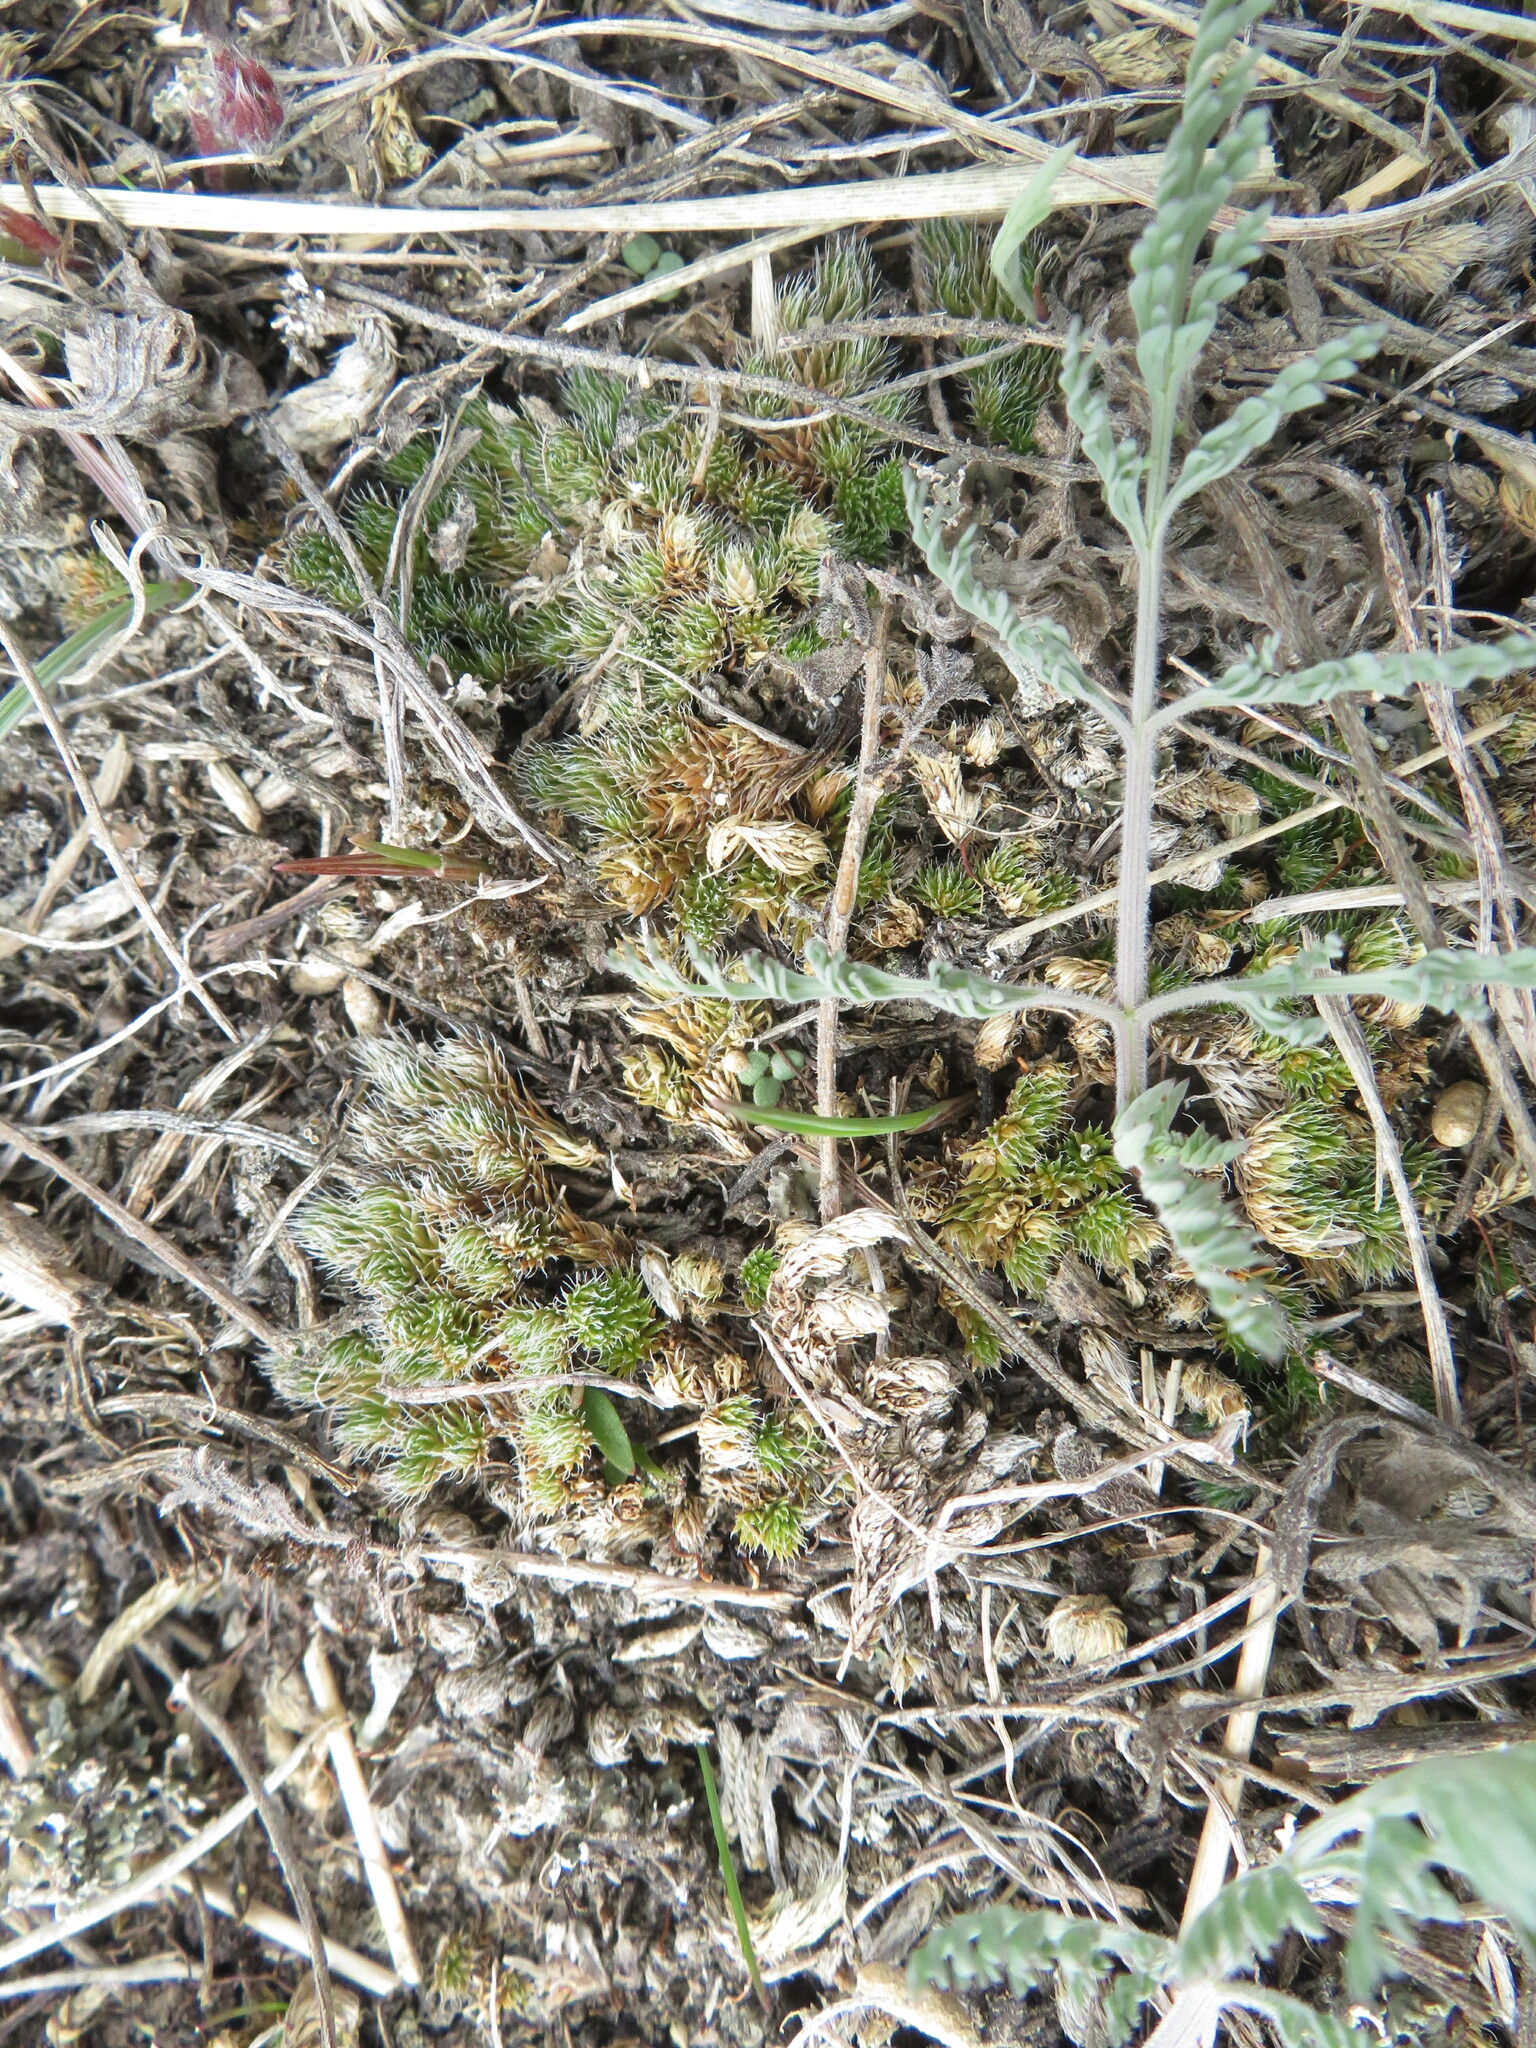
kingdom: Plantae
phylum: Tracheophyta
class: Lycopodiopsida
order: Selaginellales
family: Selaginellaceae
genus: Selaginella
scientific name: Selaginella densa
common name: Mountain spike-moss
